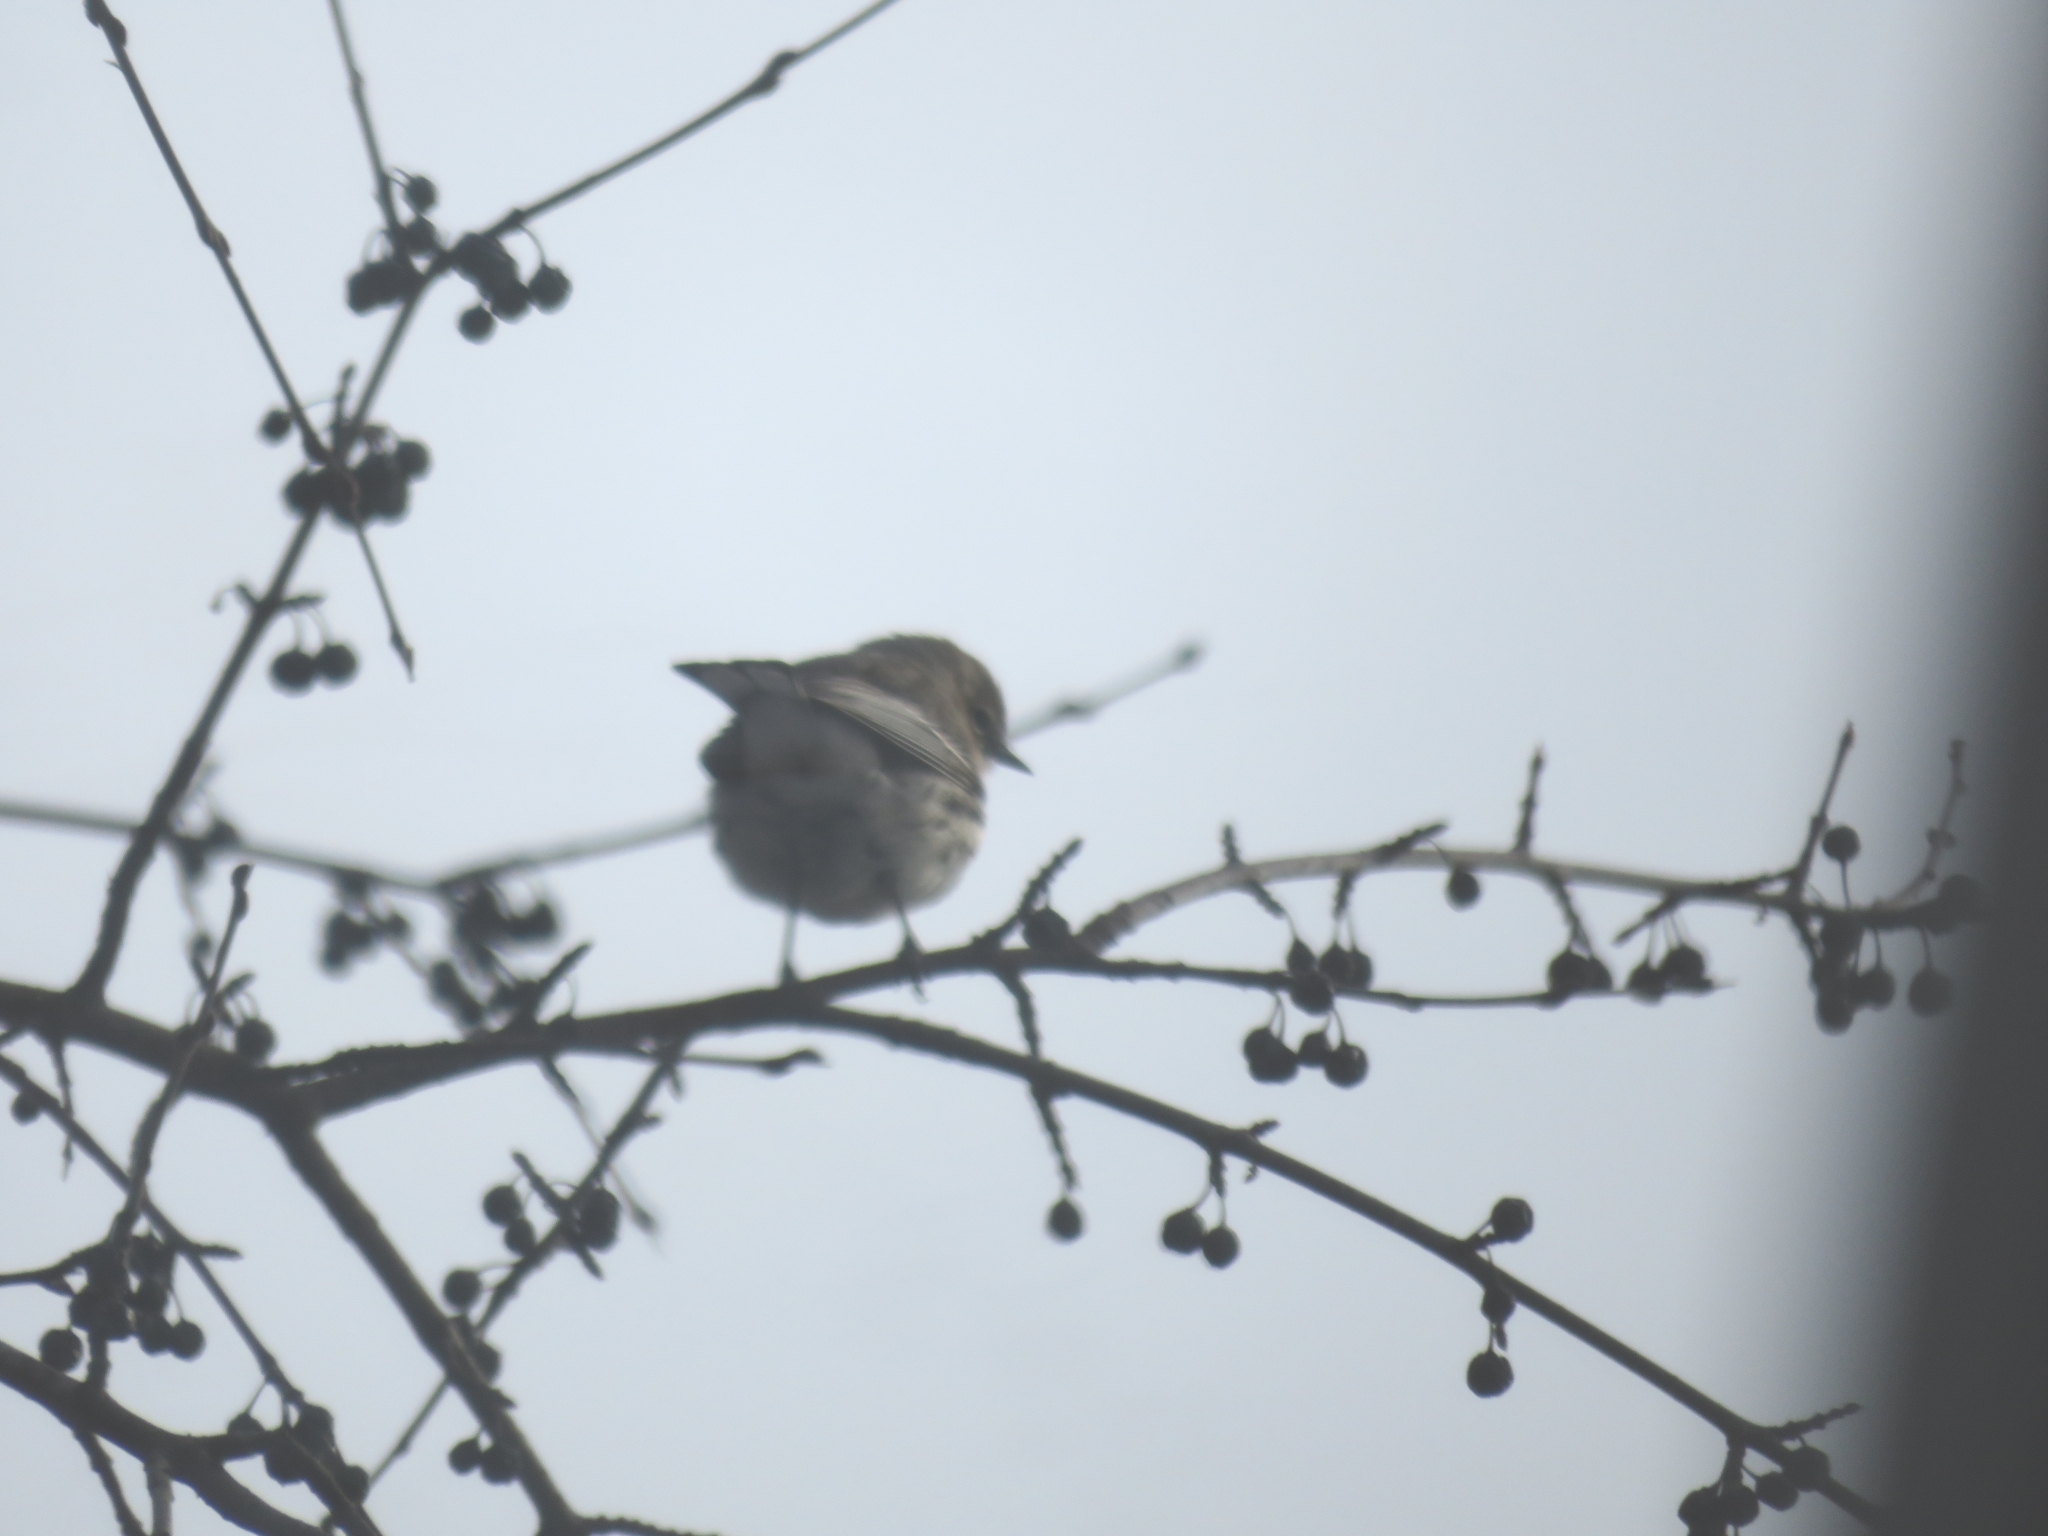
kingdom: Animalia
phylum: Chordata
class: Aves
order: Passeriformes
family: Parulidae
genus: Setophaga
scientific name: Setophaga coronata
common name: Myrtle warbler
